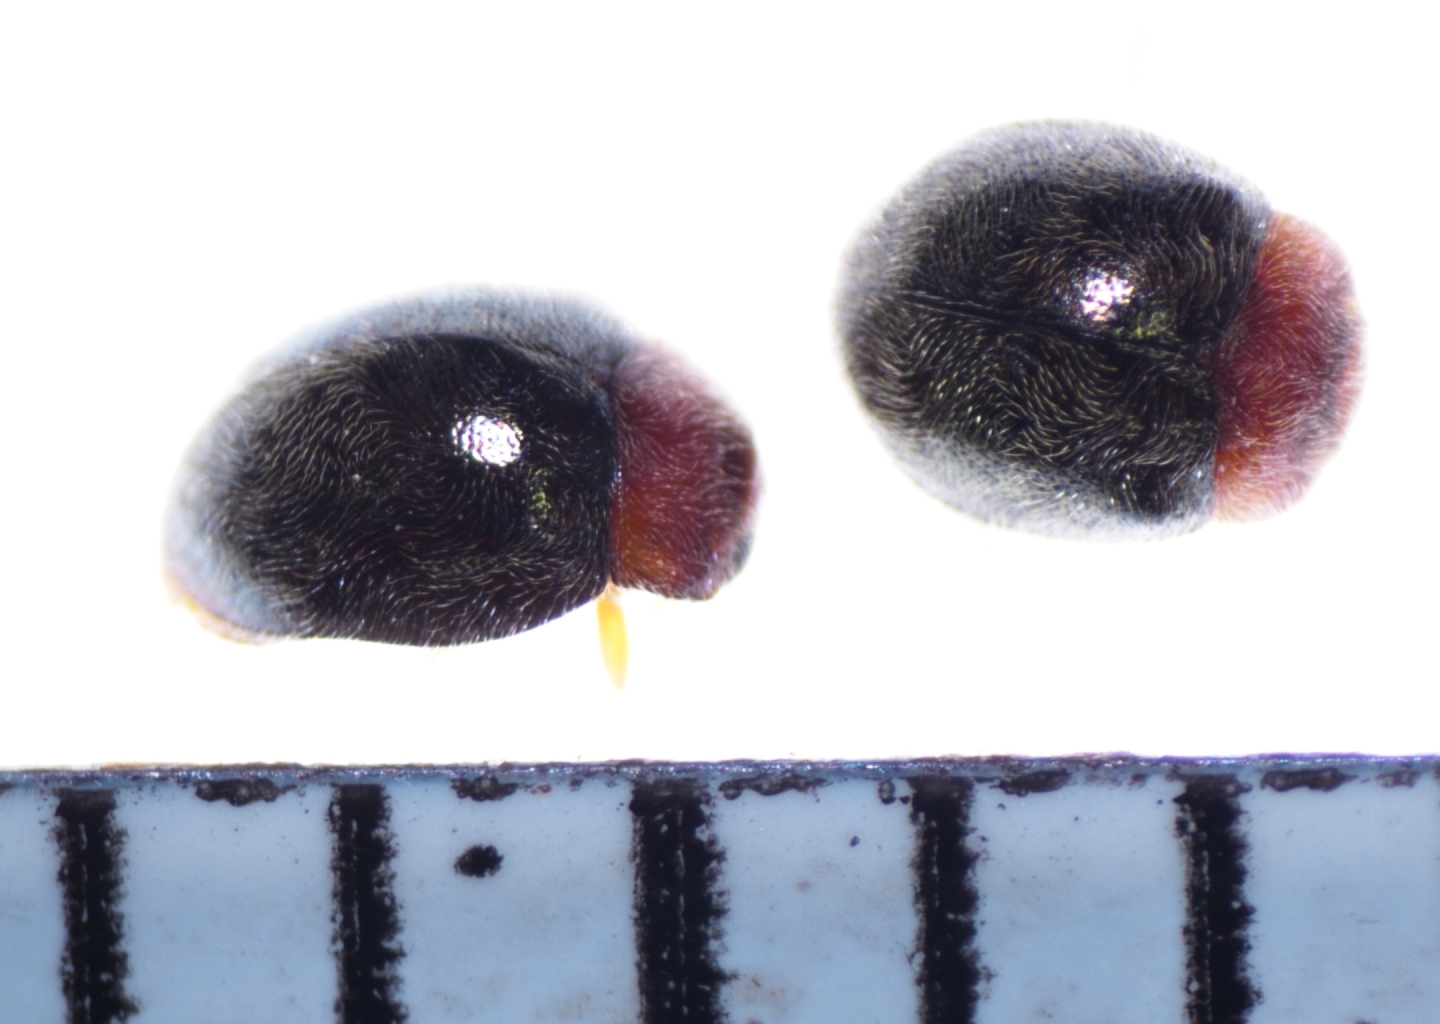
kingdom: Animalia
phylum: Arthropoda
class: Insecta
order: Coleoptera
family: Coccinellidae
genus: Rhyzobius
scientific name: Rhyzobius lophanthae
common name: Scale-eating ladybird beetle
